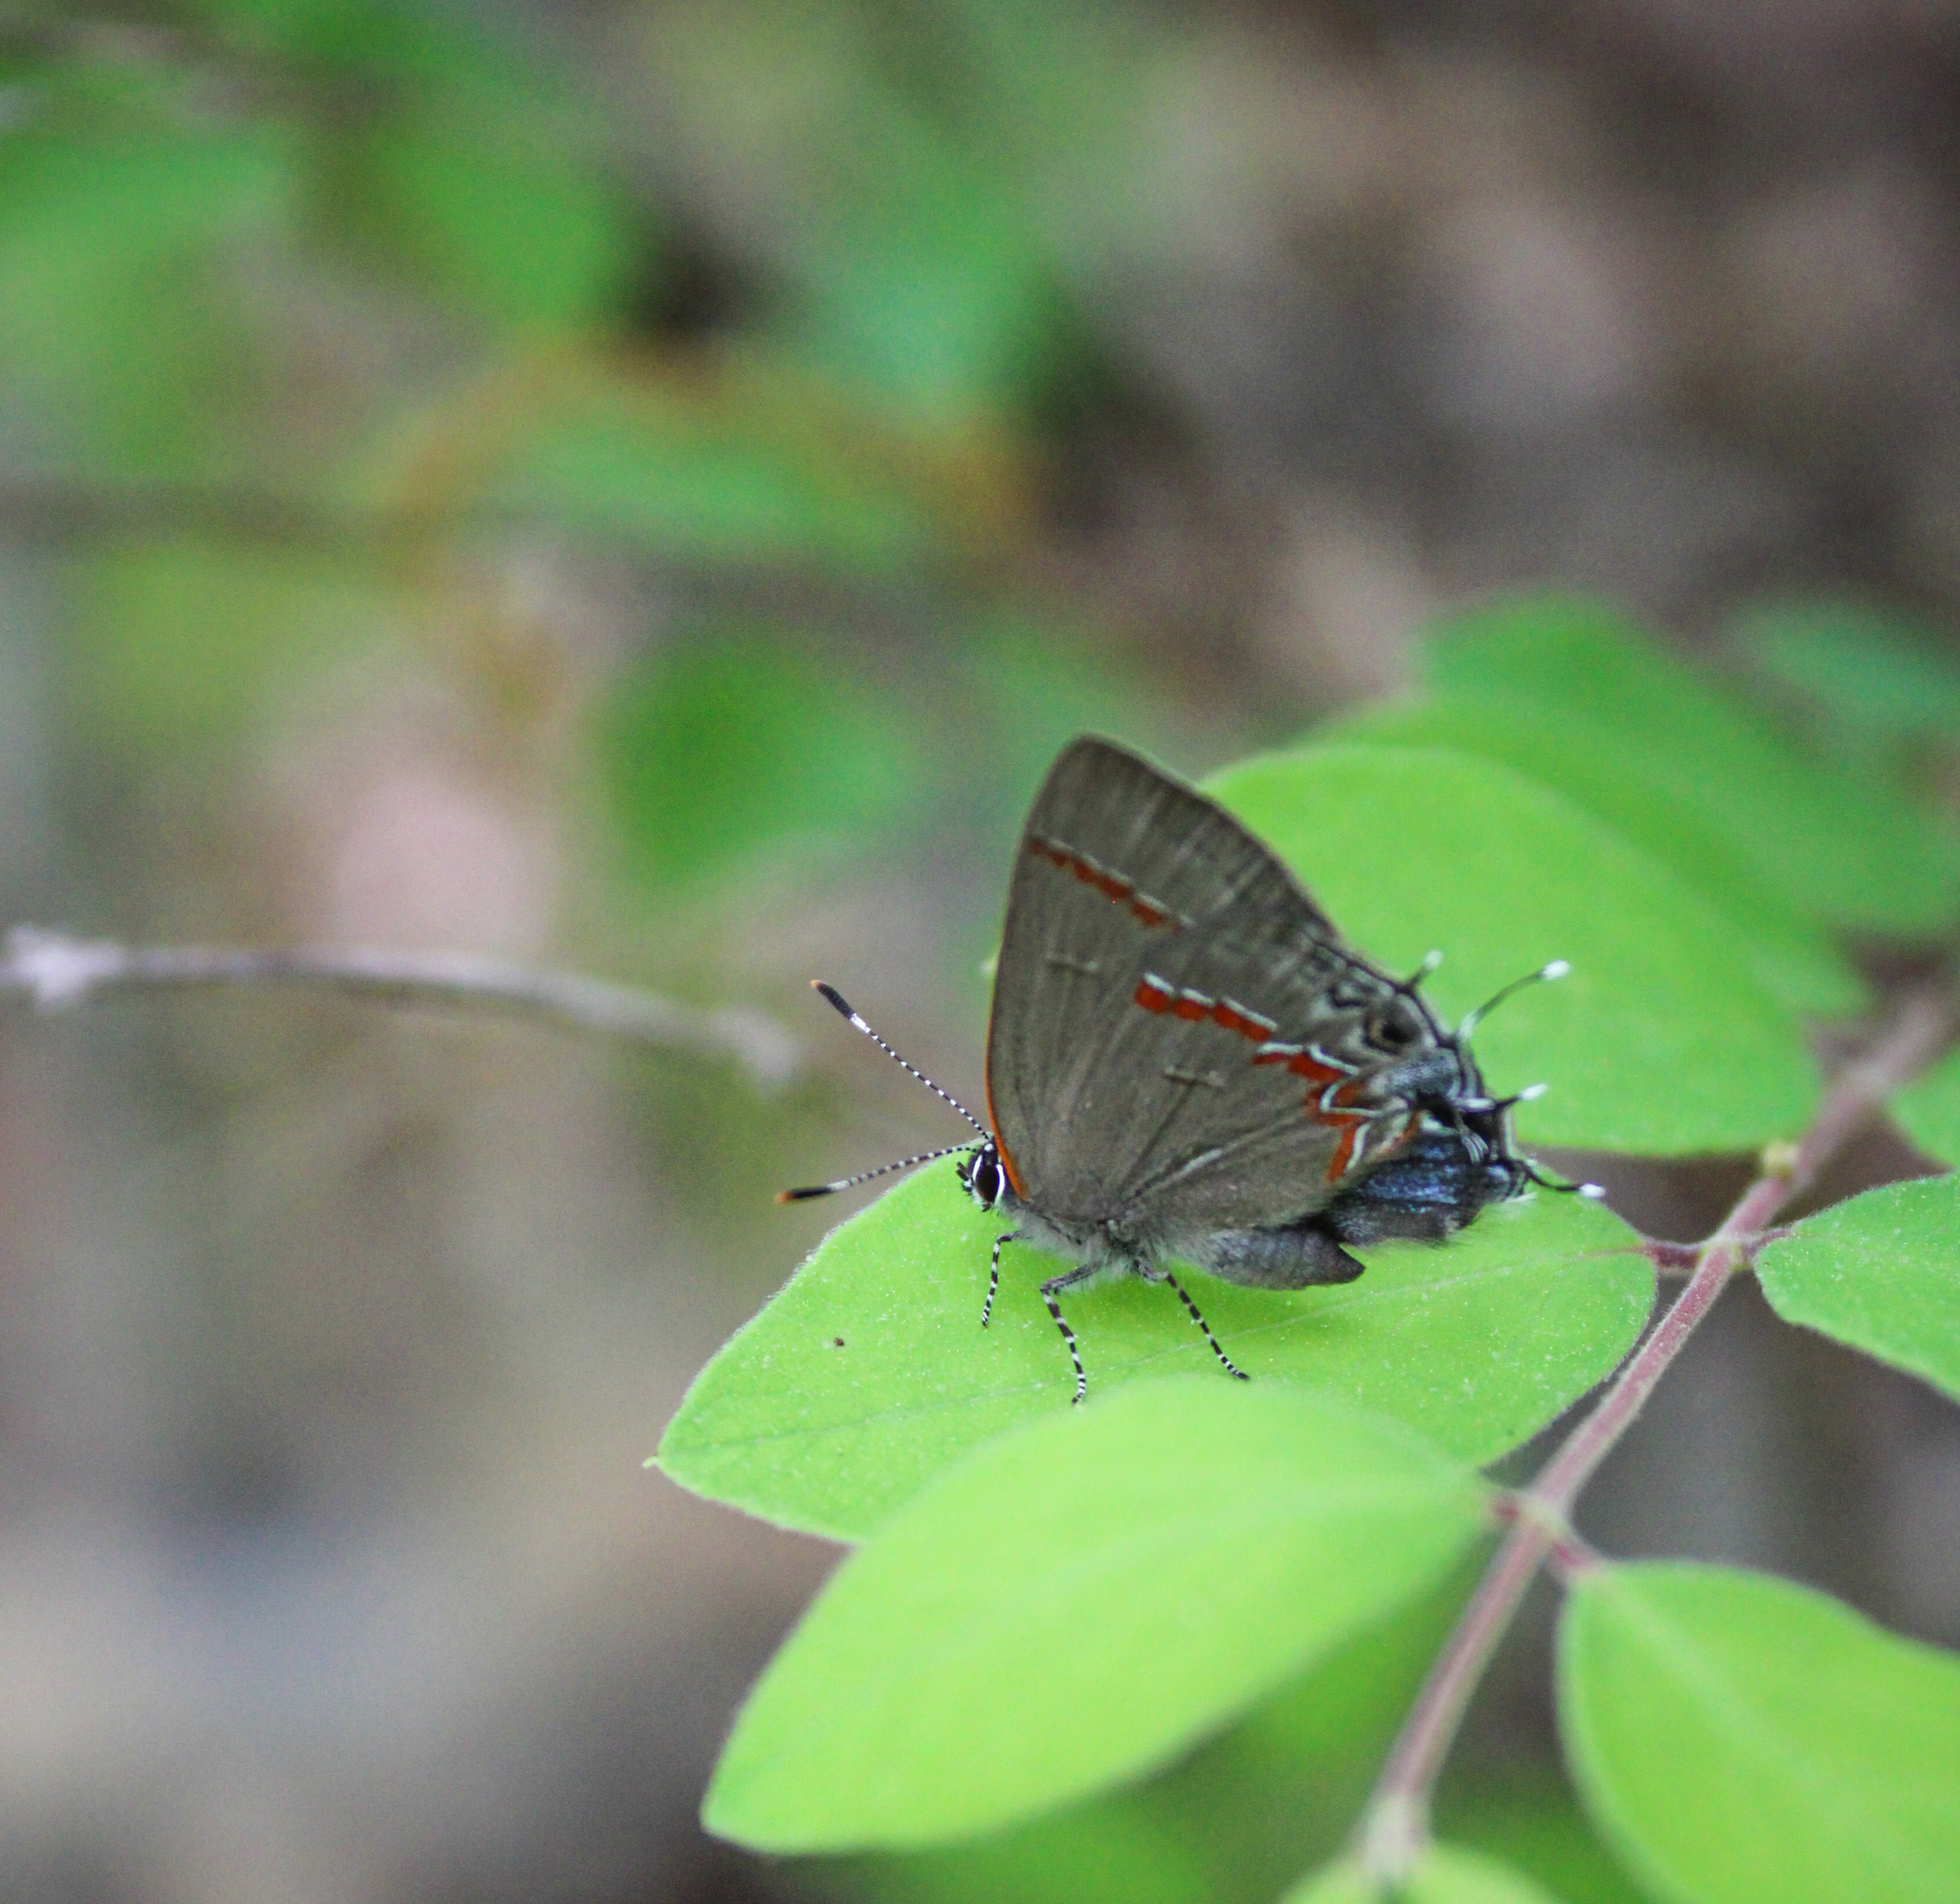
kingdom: Animalia
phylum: Arthropoda
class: Insecta
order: Lepidoptera
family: Lycaenidae
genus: Calycopis
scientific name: Calycopis cecrops
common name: Red-banded hairstreak
